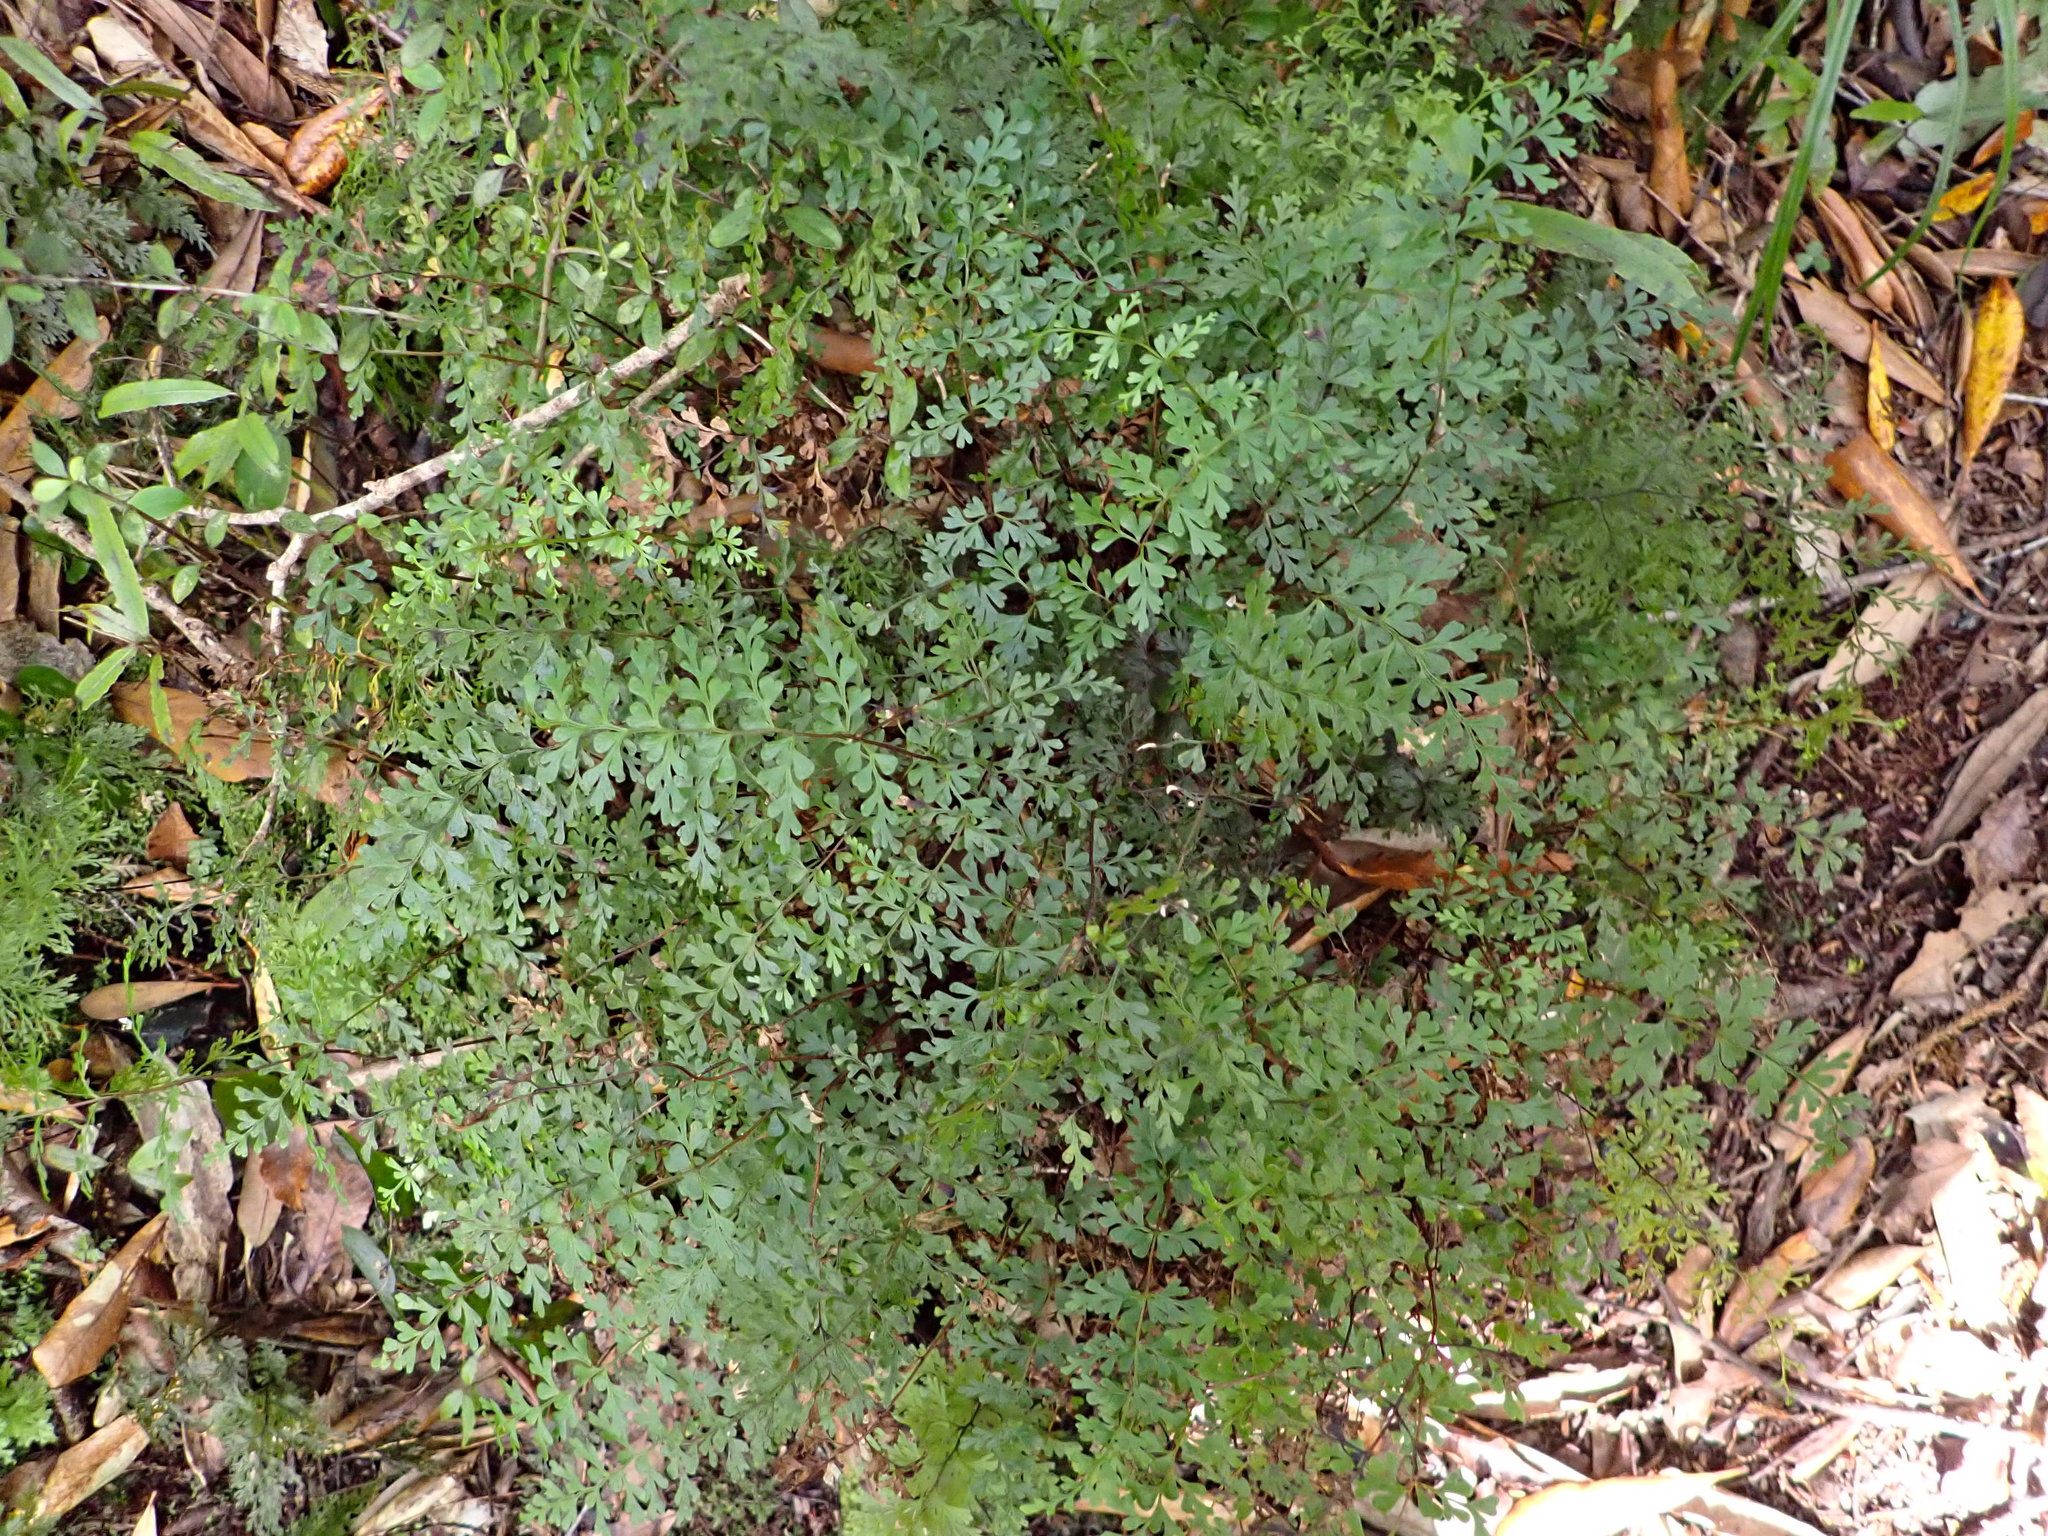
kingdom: Plantae
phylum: Tracheophyta
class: Polypodiopsida
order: Polypodiales
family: Lindsaeaceae
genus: Lindsaea
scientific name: Lindsaea trichomanoides
